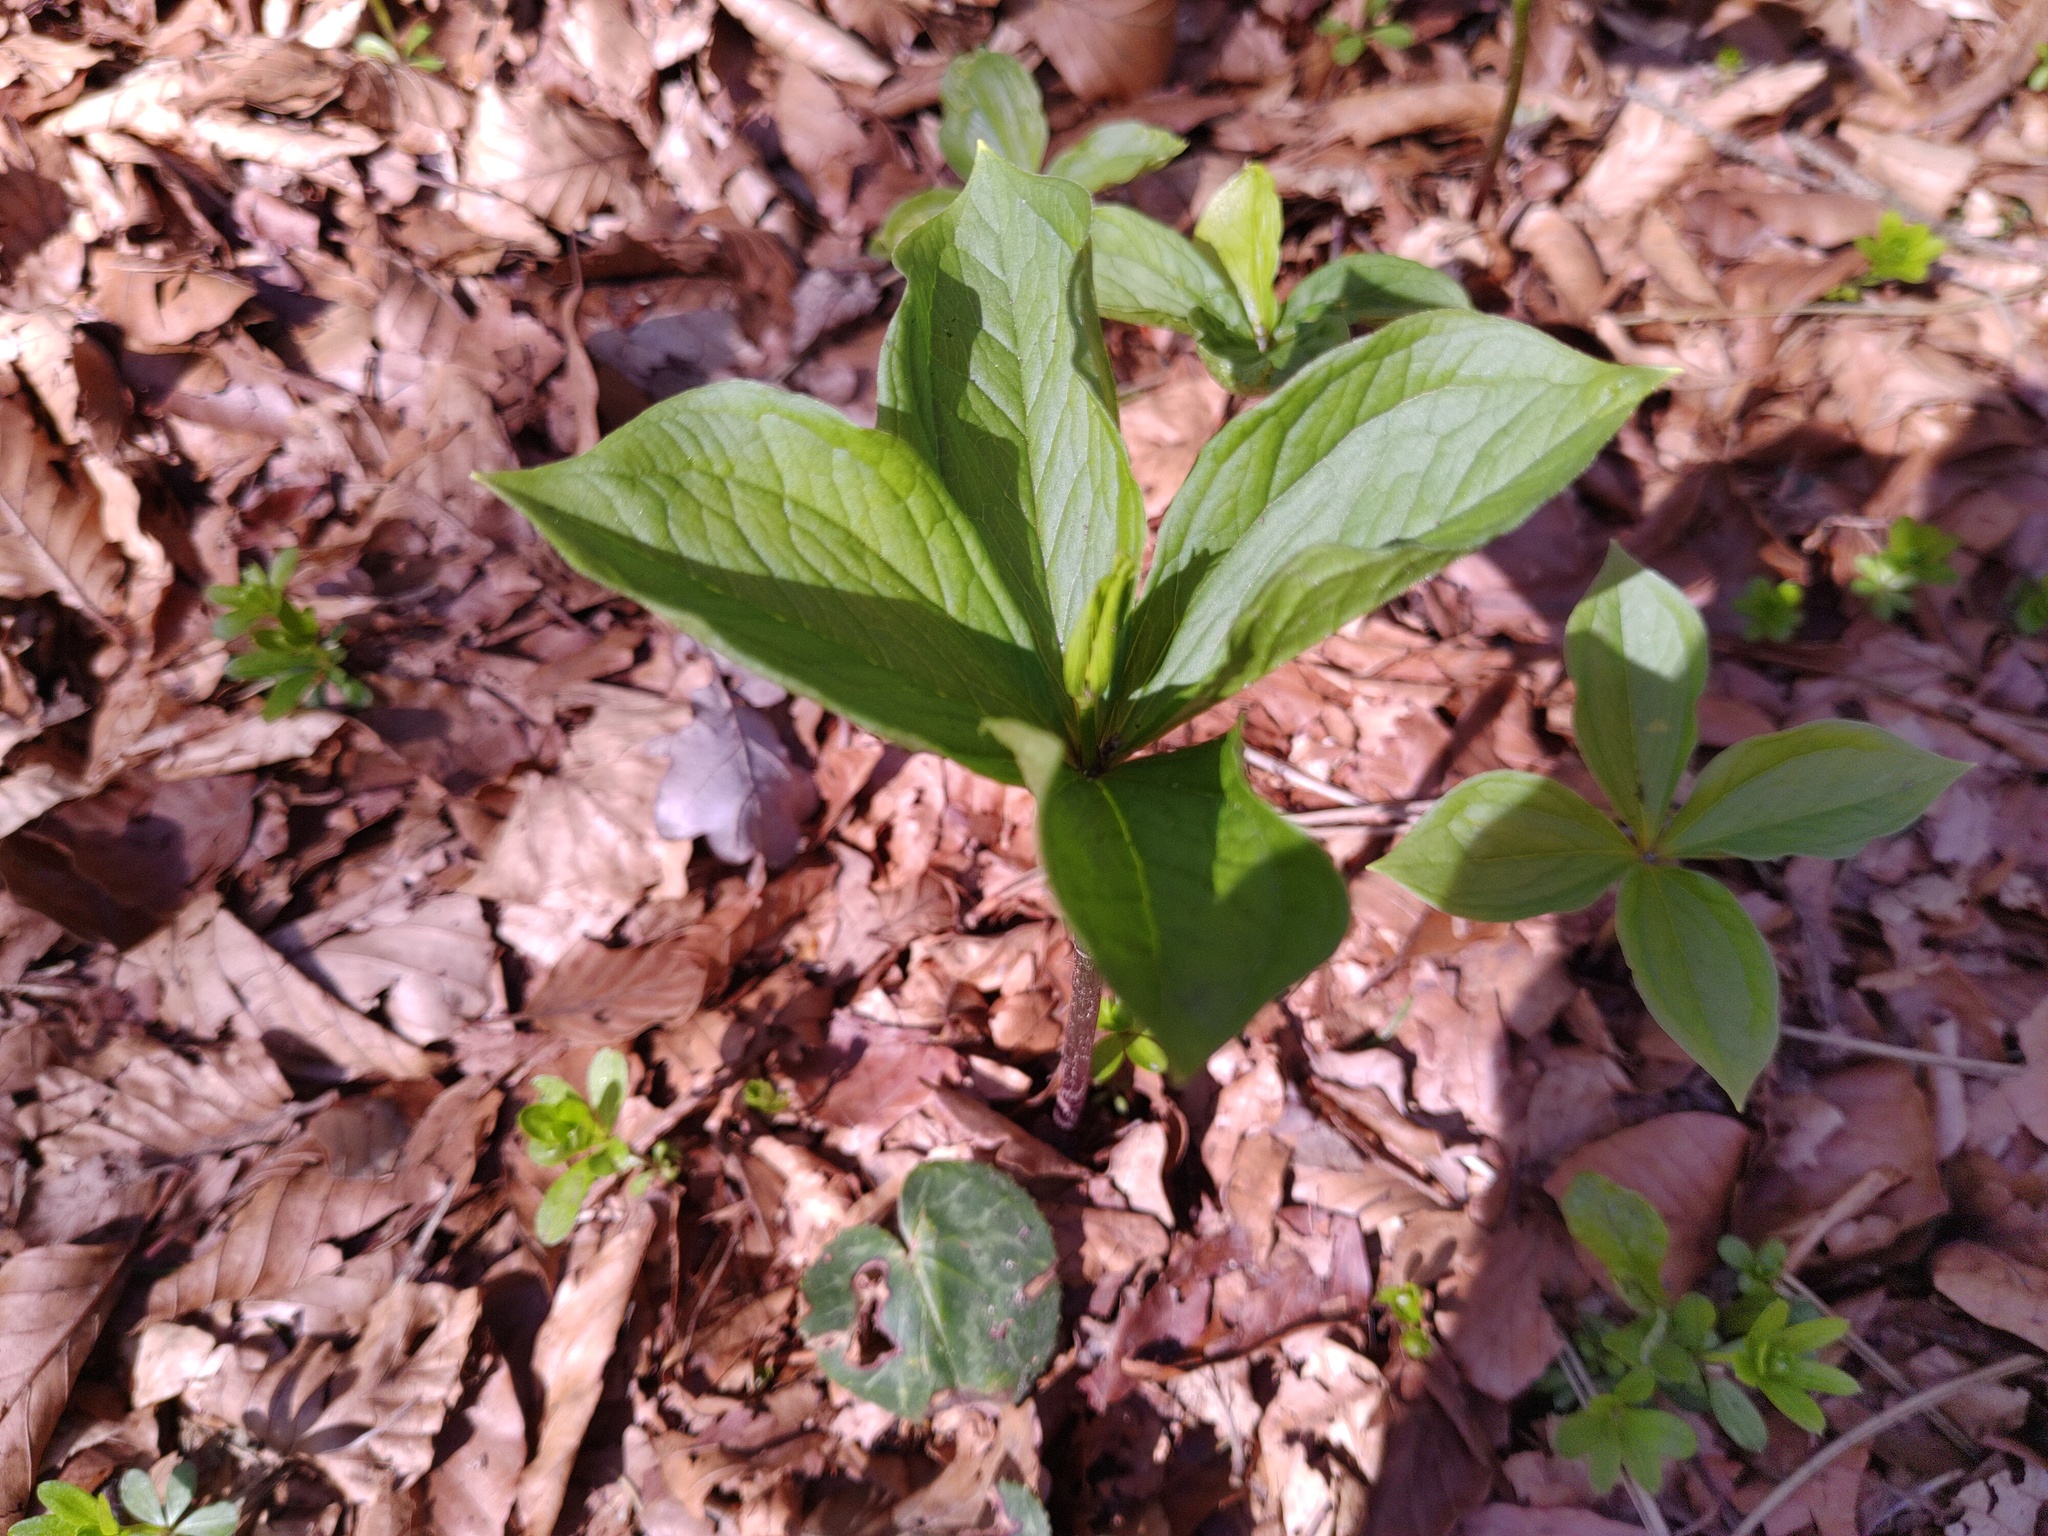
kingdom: Plantae
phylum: Tracheophyta
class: Liliopsida
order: Liliales
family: Melanthiaceae
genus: Paris
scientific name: Paris quadrifolia
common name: Herb-paris
